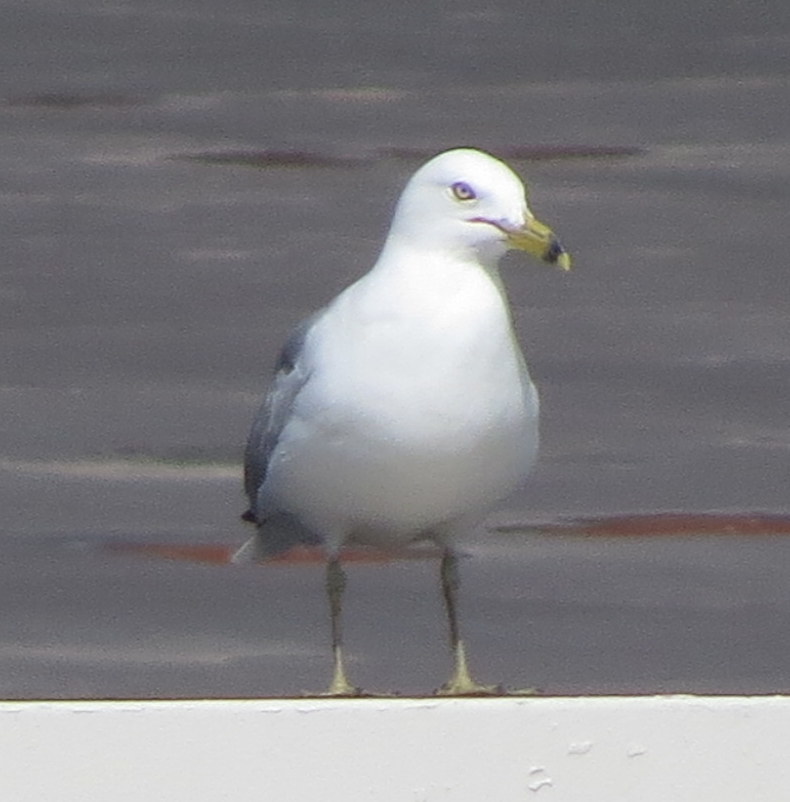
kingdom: Animalia
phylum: Chordata
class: Aves
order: Charadriiformes
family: Laridae
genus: Larus
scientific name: Larus delawarensis
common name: Ring-billed gull
